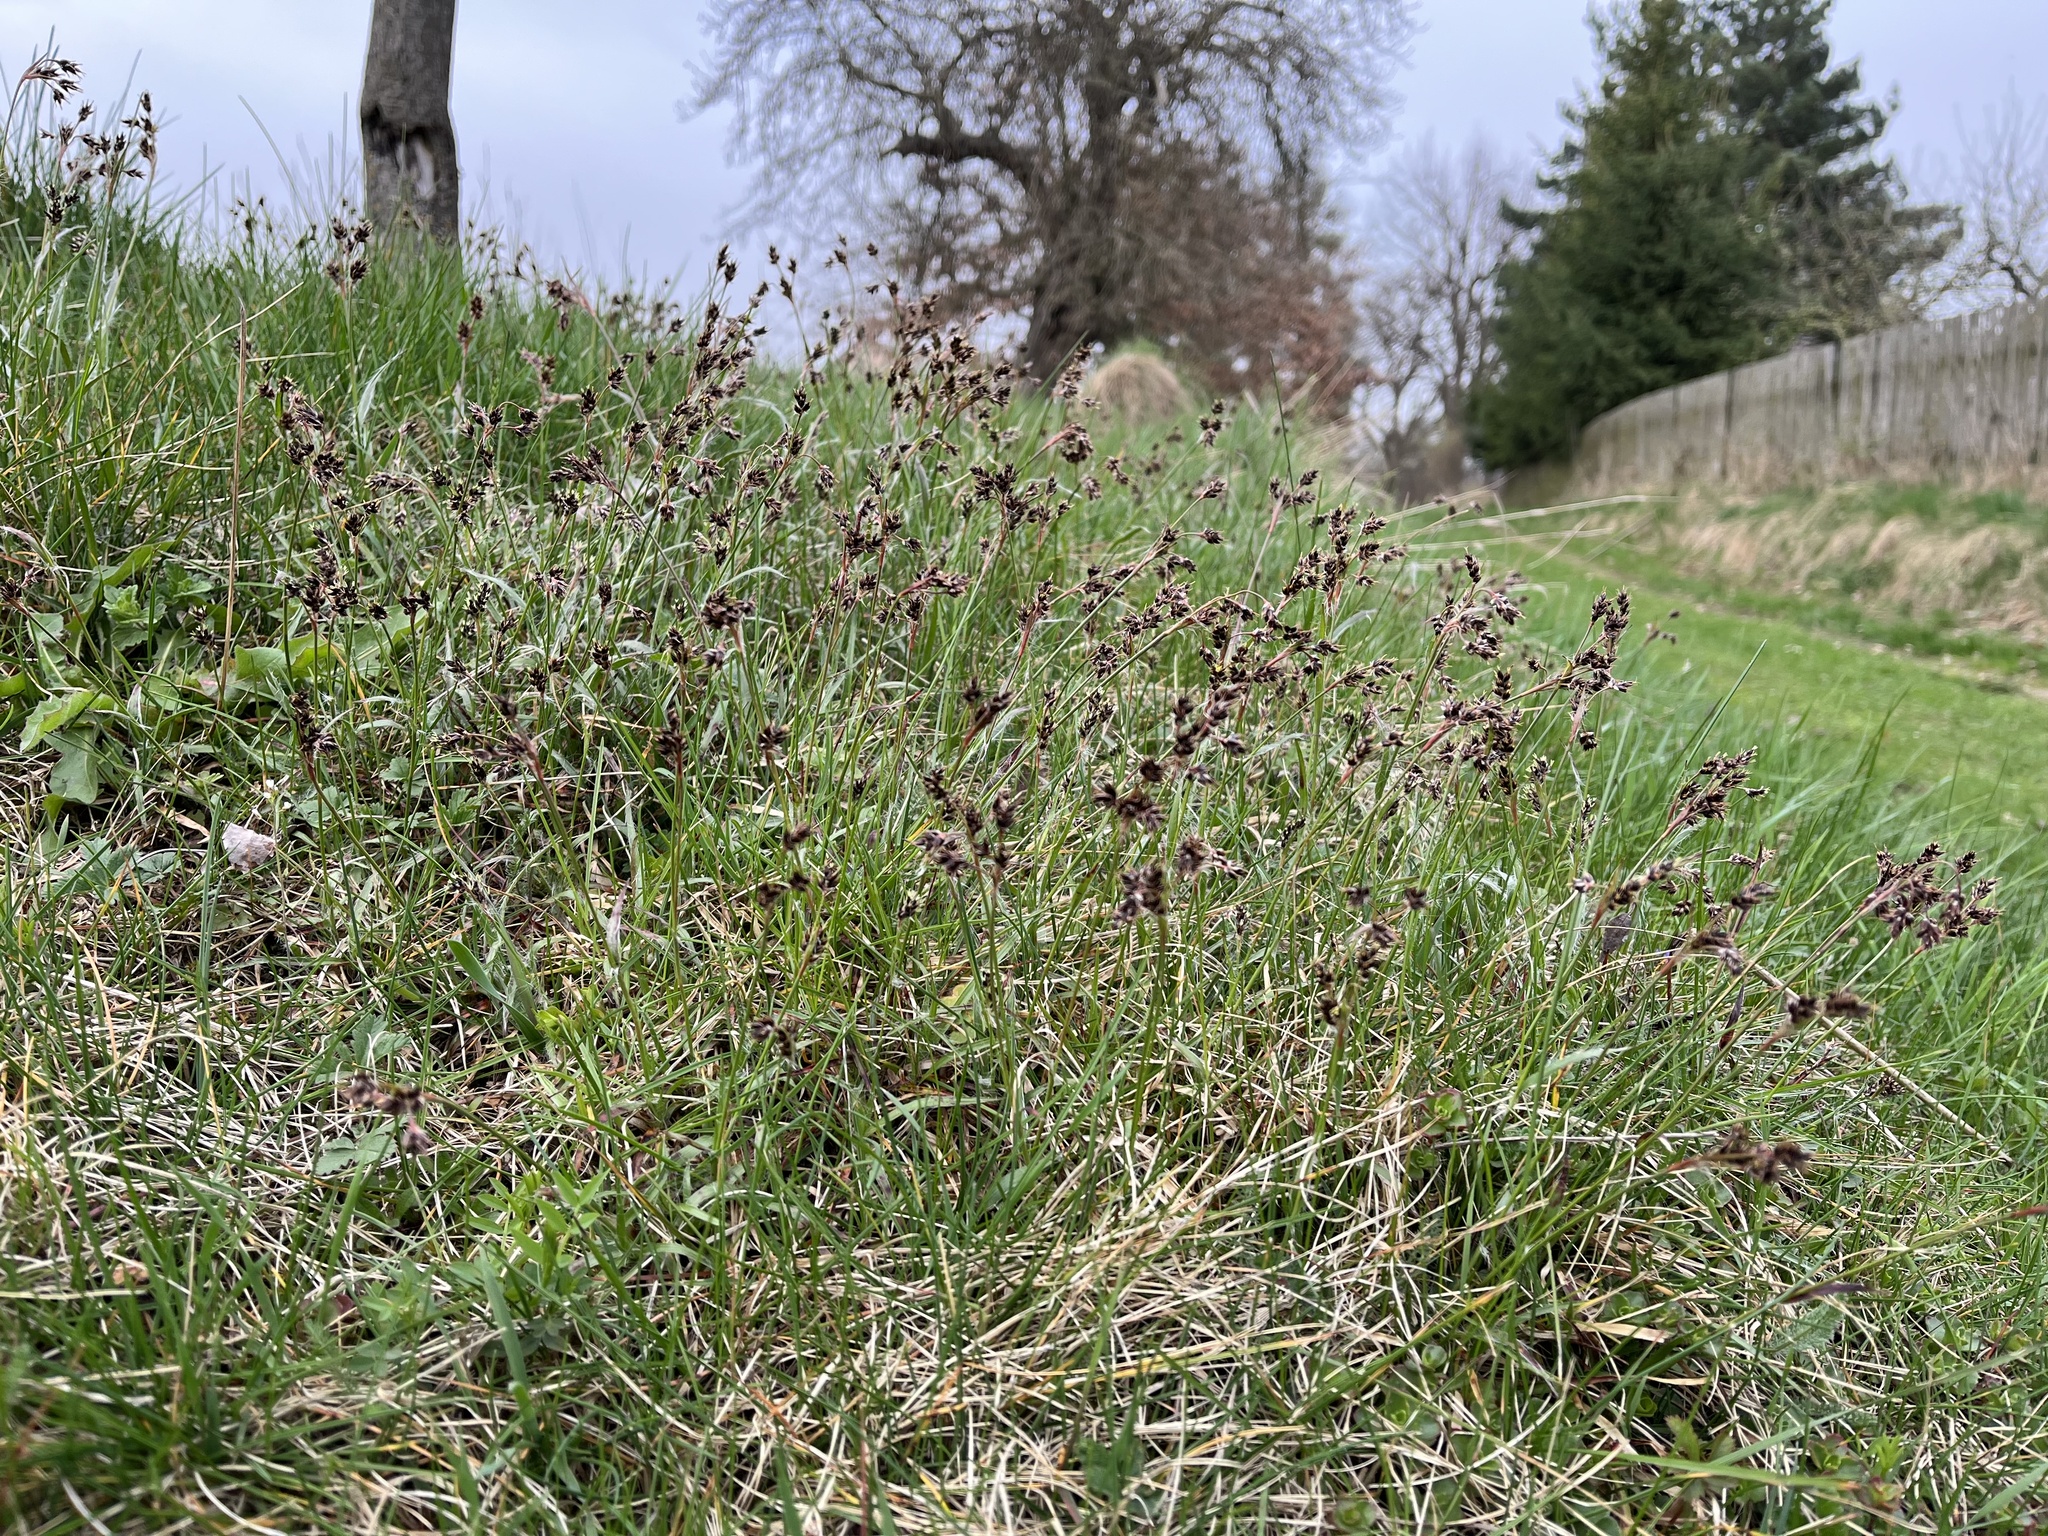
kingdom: Plantae
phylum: Tracheophyta
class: Liliopsida
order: Poales
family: Juncaceae
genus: Luzula
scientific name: Luzula campestris
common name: Field wood-rush
